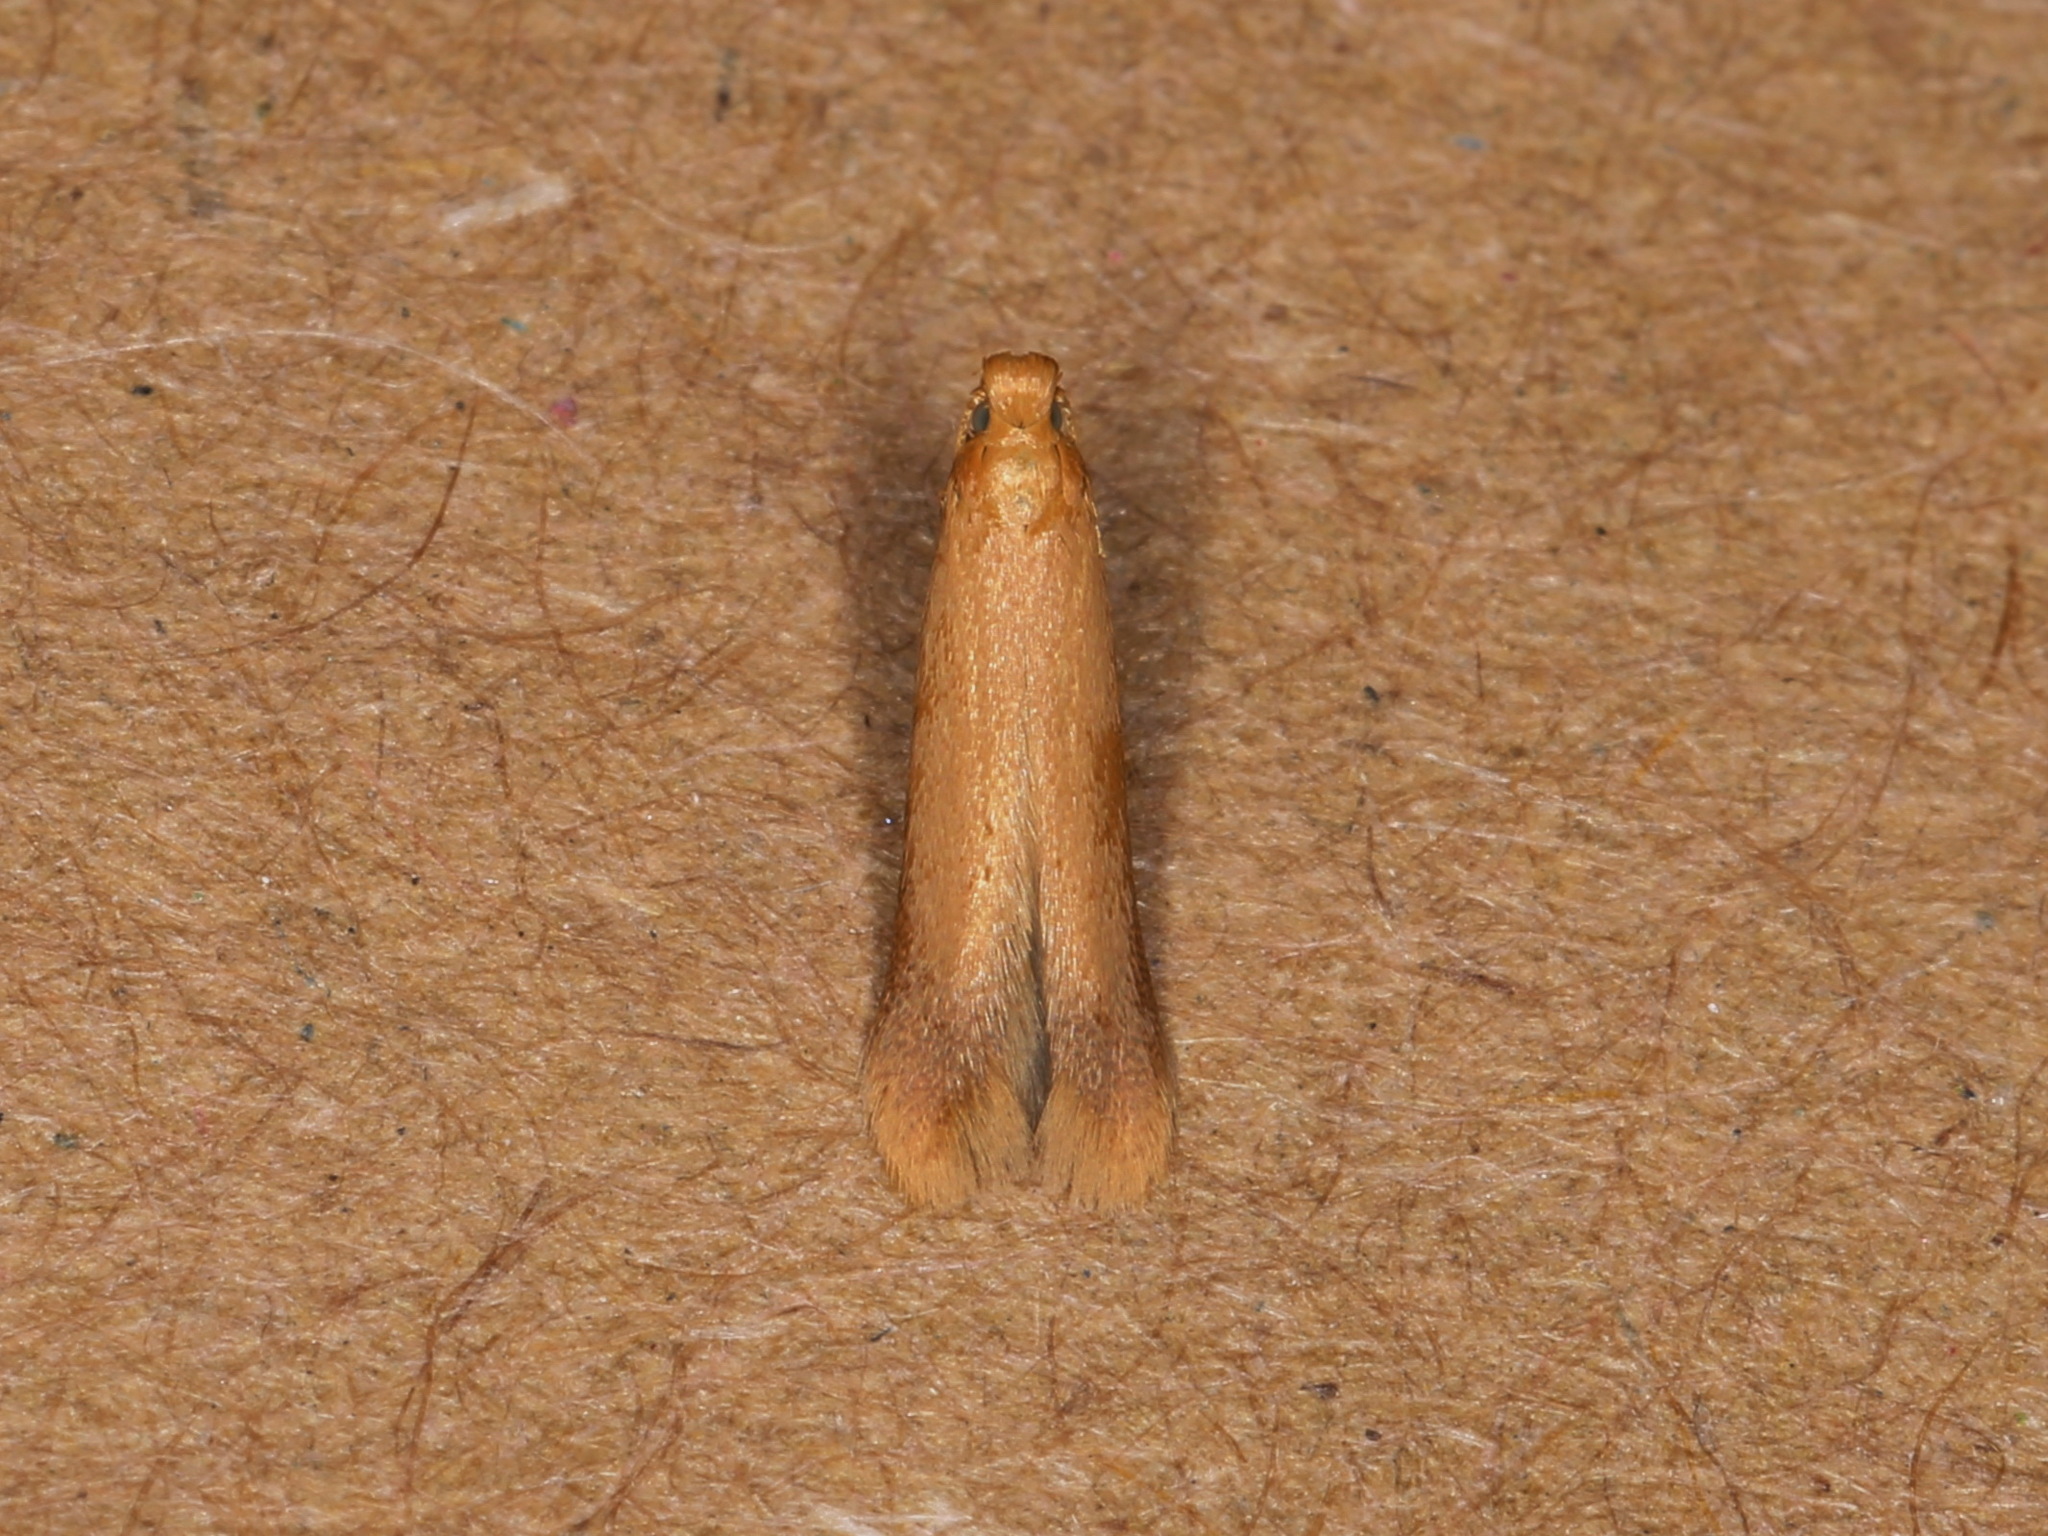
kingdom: Animalia
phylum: Arthropoda
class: Insecta
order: Lepidoptera
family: Tischeriidae
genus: Tischeria
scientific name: Tischeria ekebladella
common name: Oak carl
